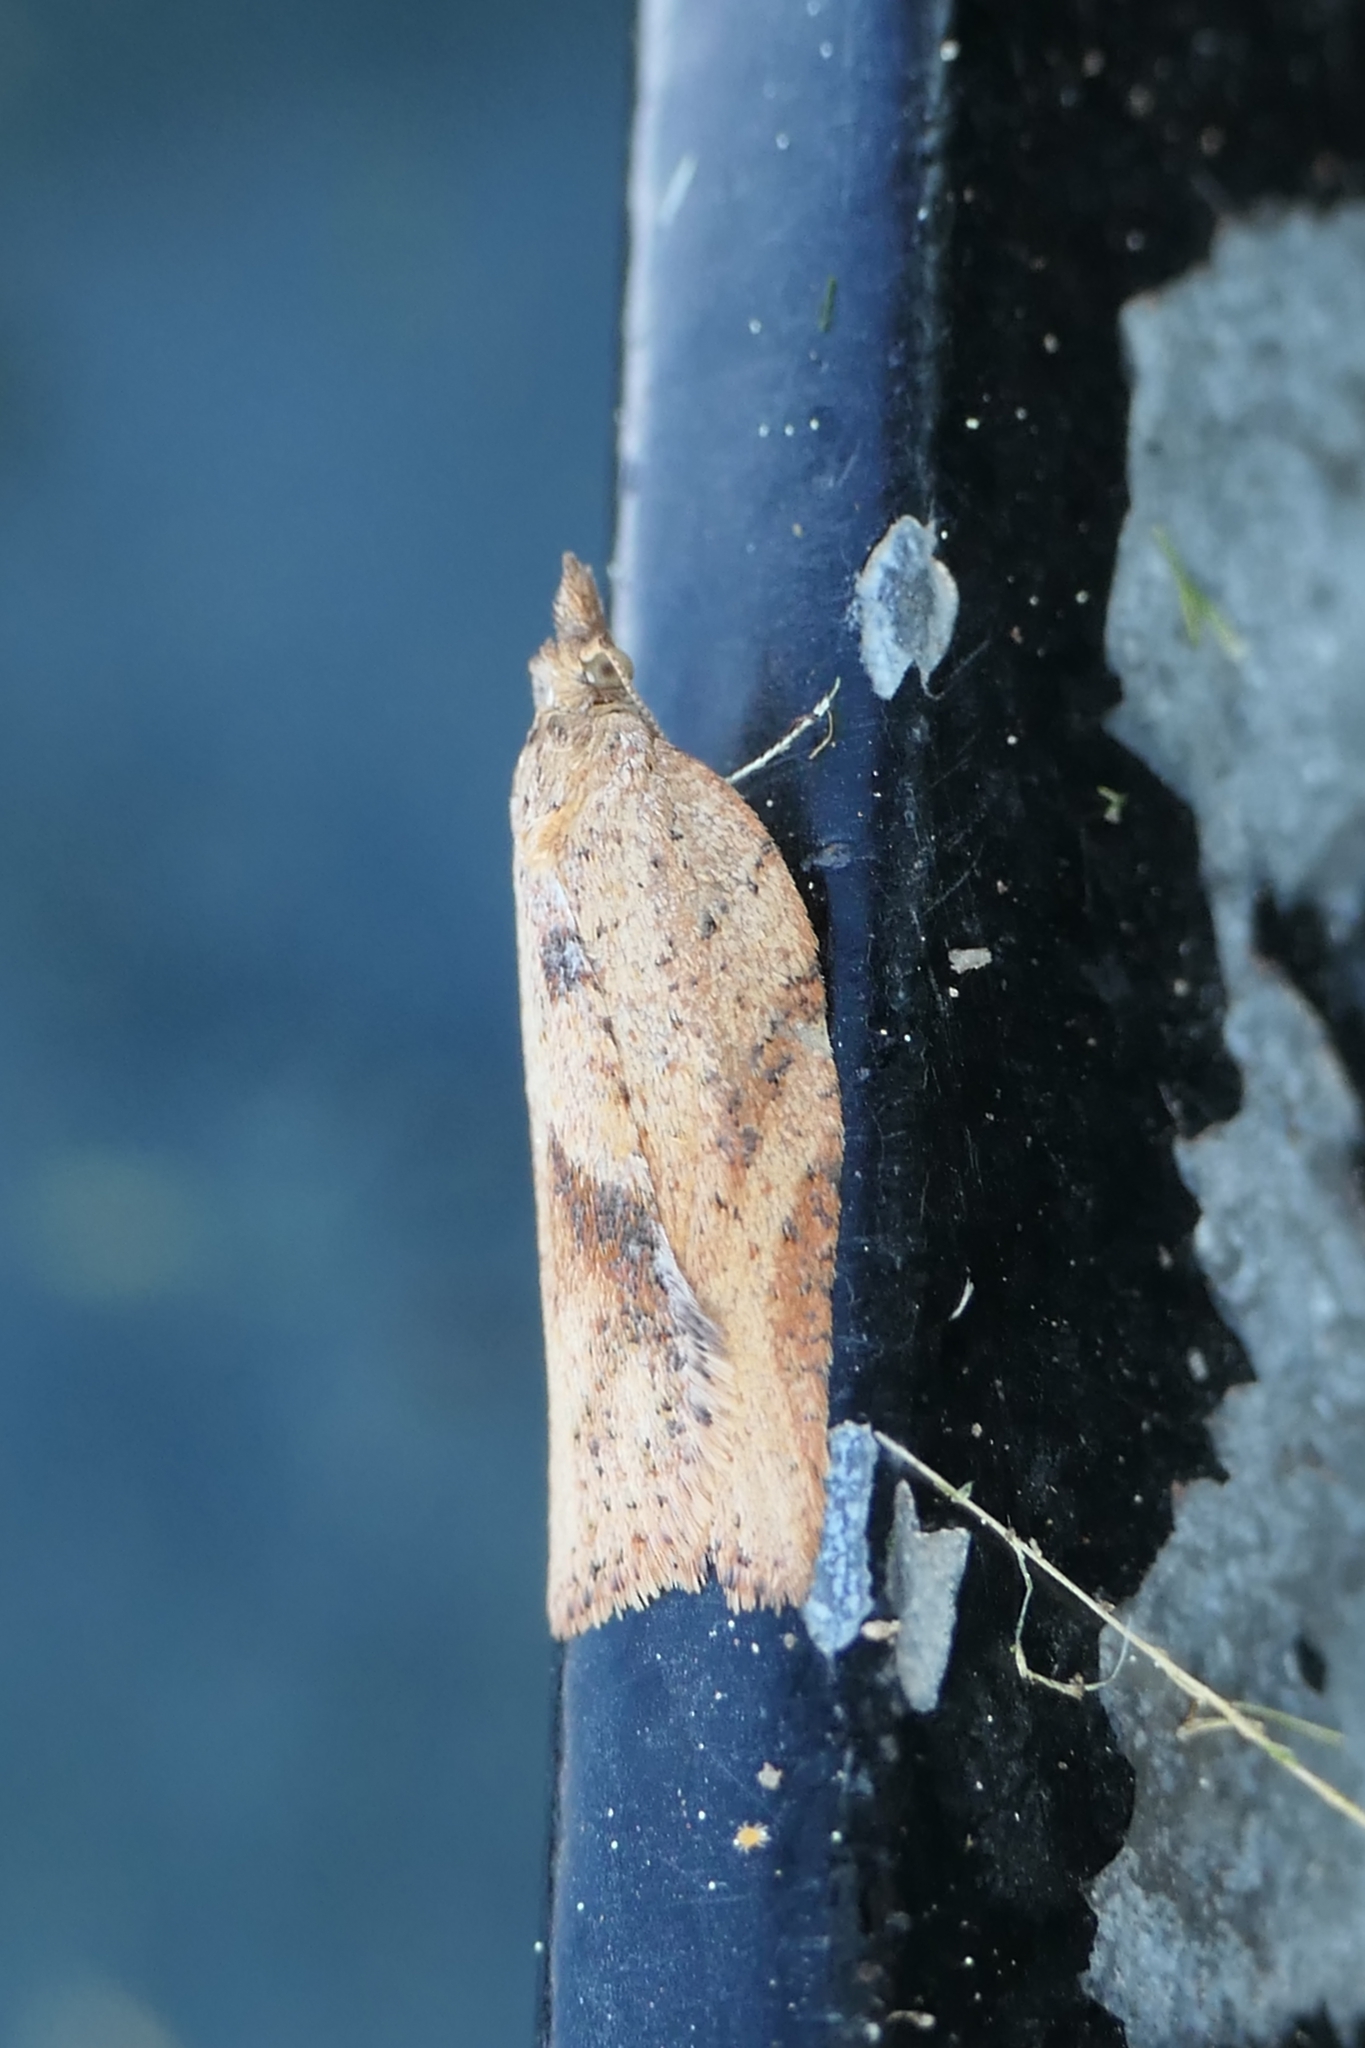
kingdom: Animalia
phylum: Arthropoda
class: Insecta
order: Lepidoptera
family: Tortricidae
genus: Epiphyas
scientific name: Epiphyas postvittana
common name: Light brown apple moth
